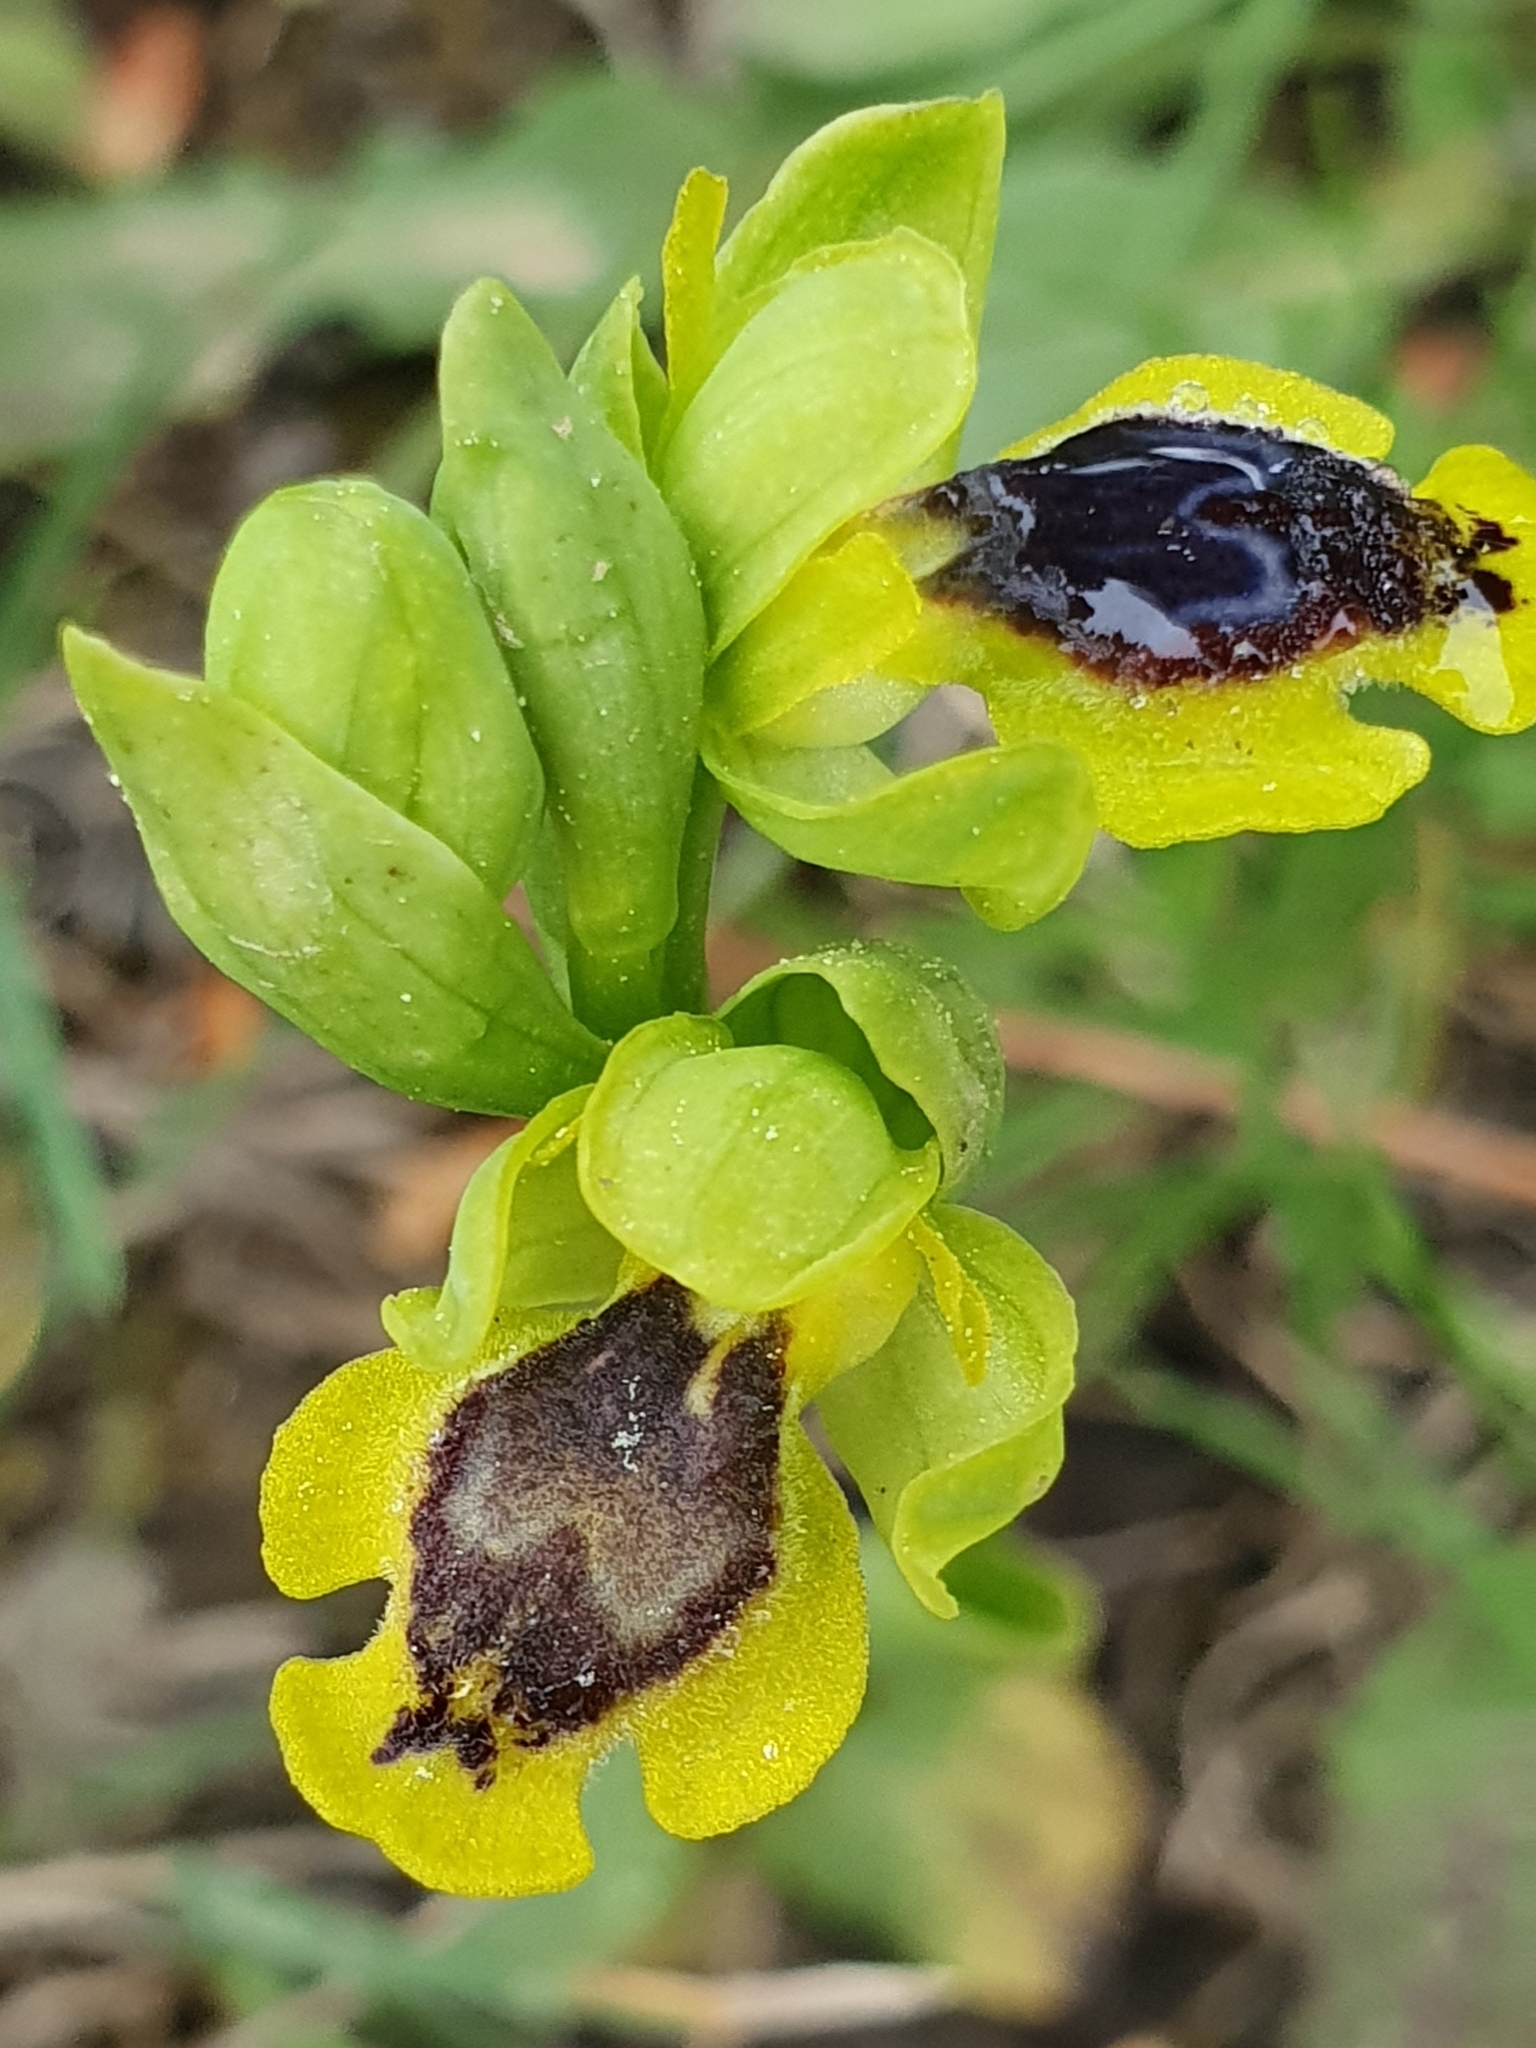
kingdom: Plantae
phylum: Tracheophyta
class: Liliopsida
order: Asparagales
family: Orchidaceae
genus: Ophrys
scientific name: Ophrys battandieri
